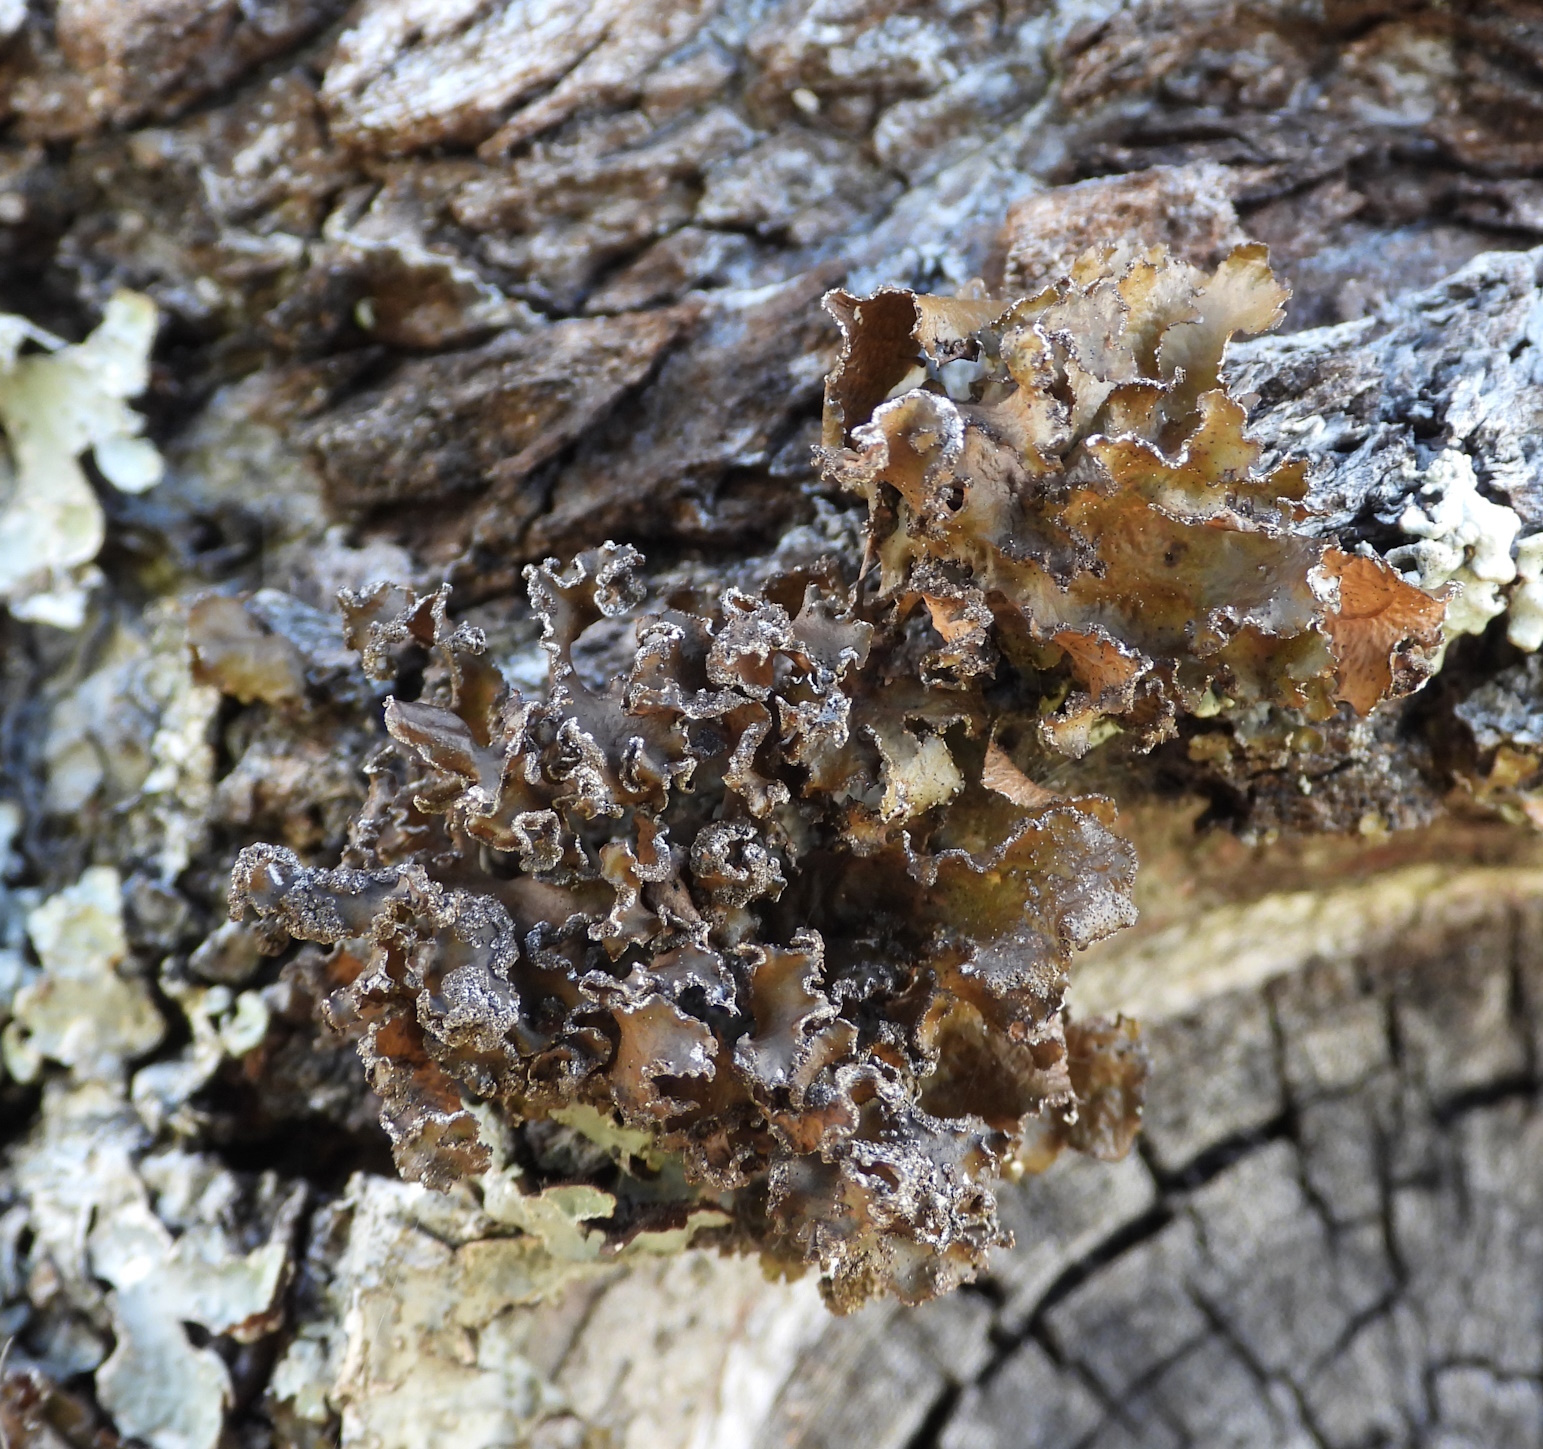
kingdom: Fungi
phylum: Ascomycota
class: Lecanoromycetes
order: Lecanorales
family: Parmeliaceae
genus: Nephromopsis
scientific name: Nephromopsis chlorophylla
